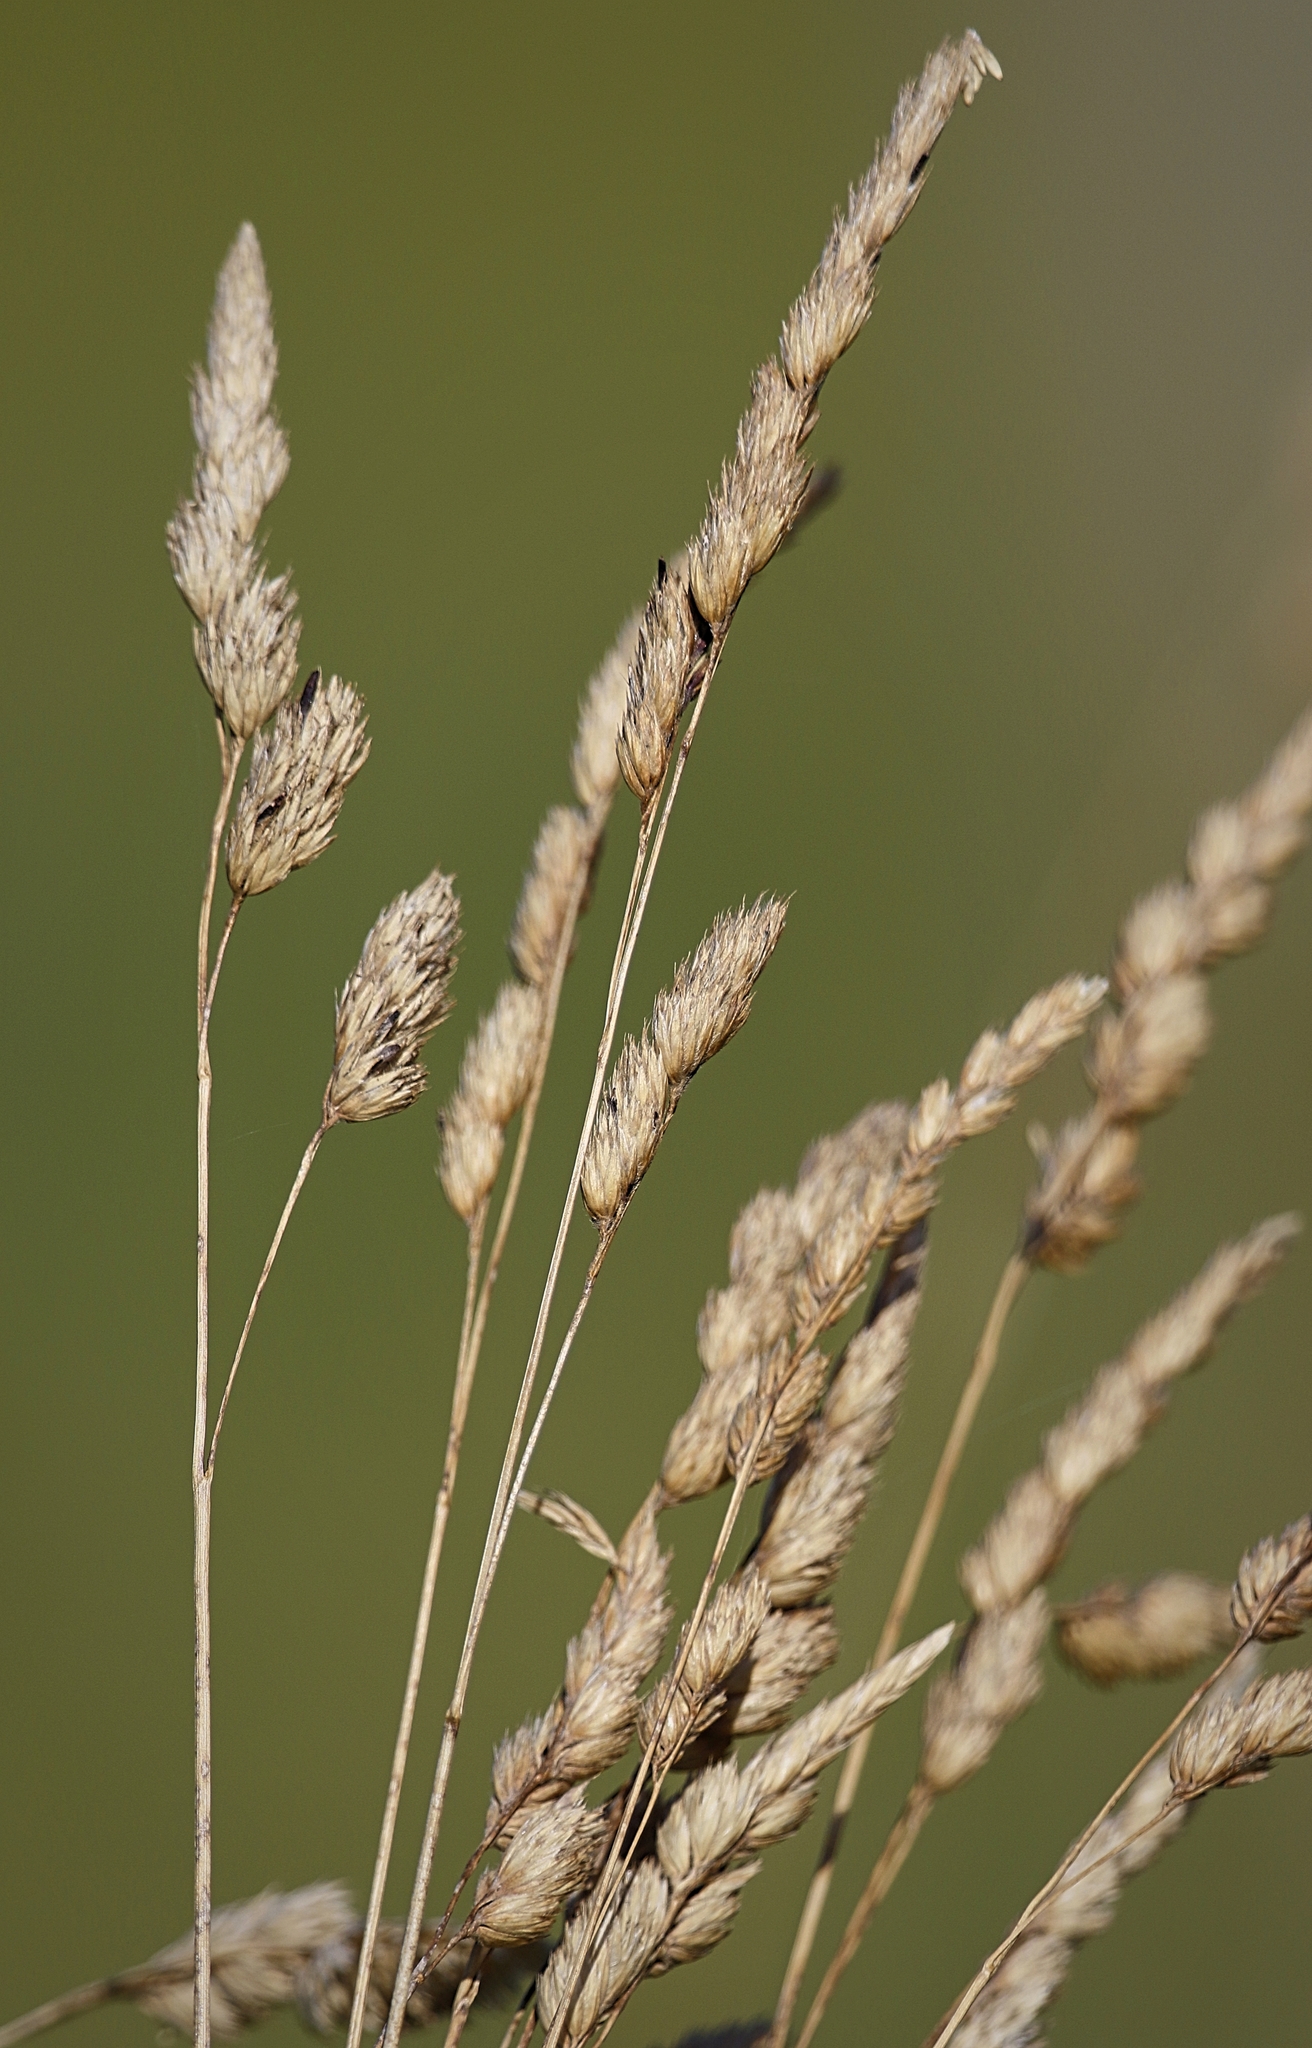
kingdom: Plantae
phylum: Tracheophyta
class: Liliopsida
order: Poales
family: Poaceae
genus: Dactylis
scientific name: Dactylis glomerata
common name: Orchardgrass
